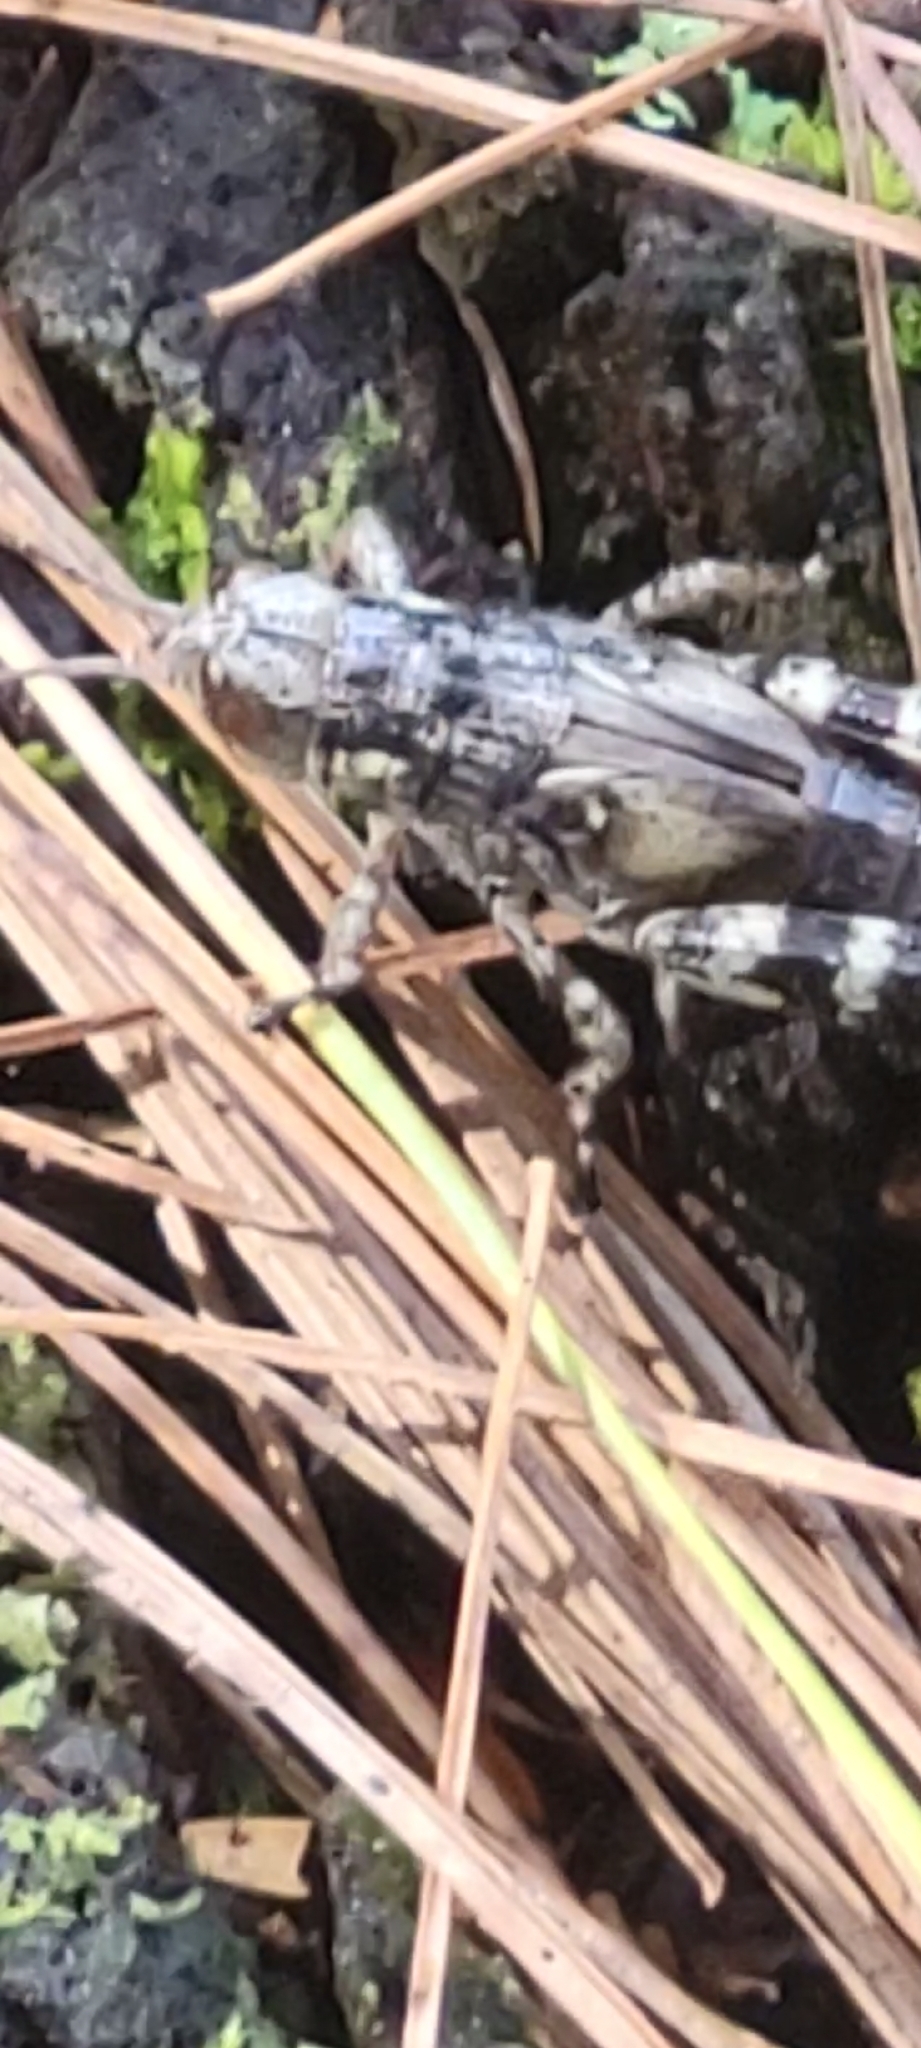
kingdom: Animalia
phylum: Arthropoda
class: Insecta
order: Orthoptera
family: Acrididae
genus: Melanoplus
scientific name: Melanoplus punctulatus
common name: Pine-tree spur-throat grasshopper
